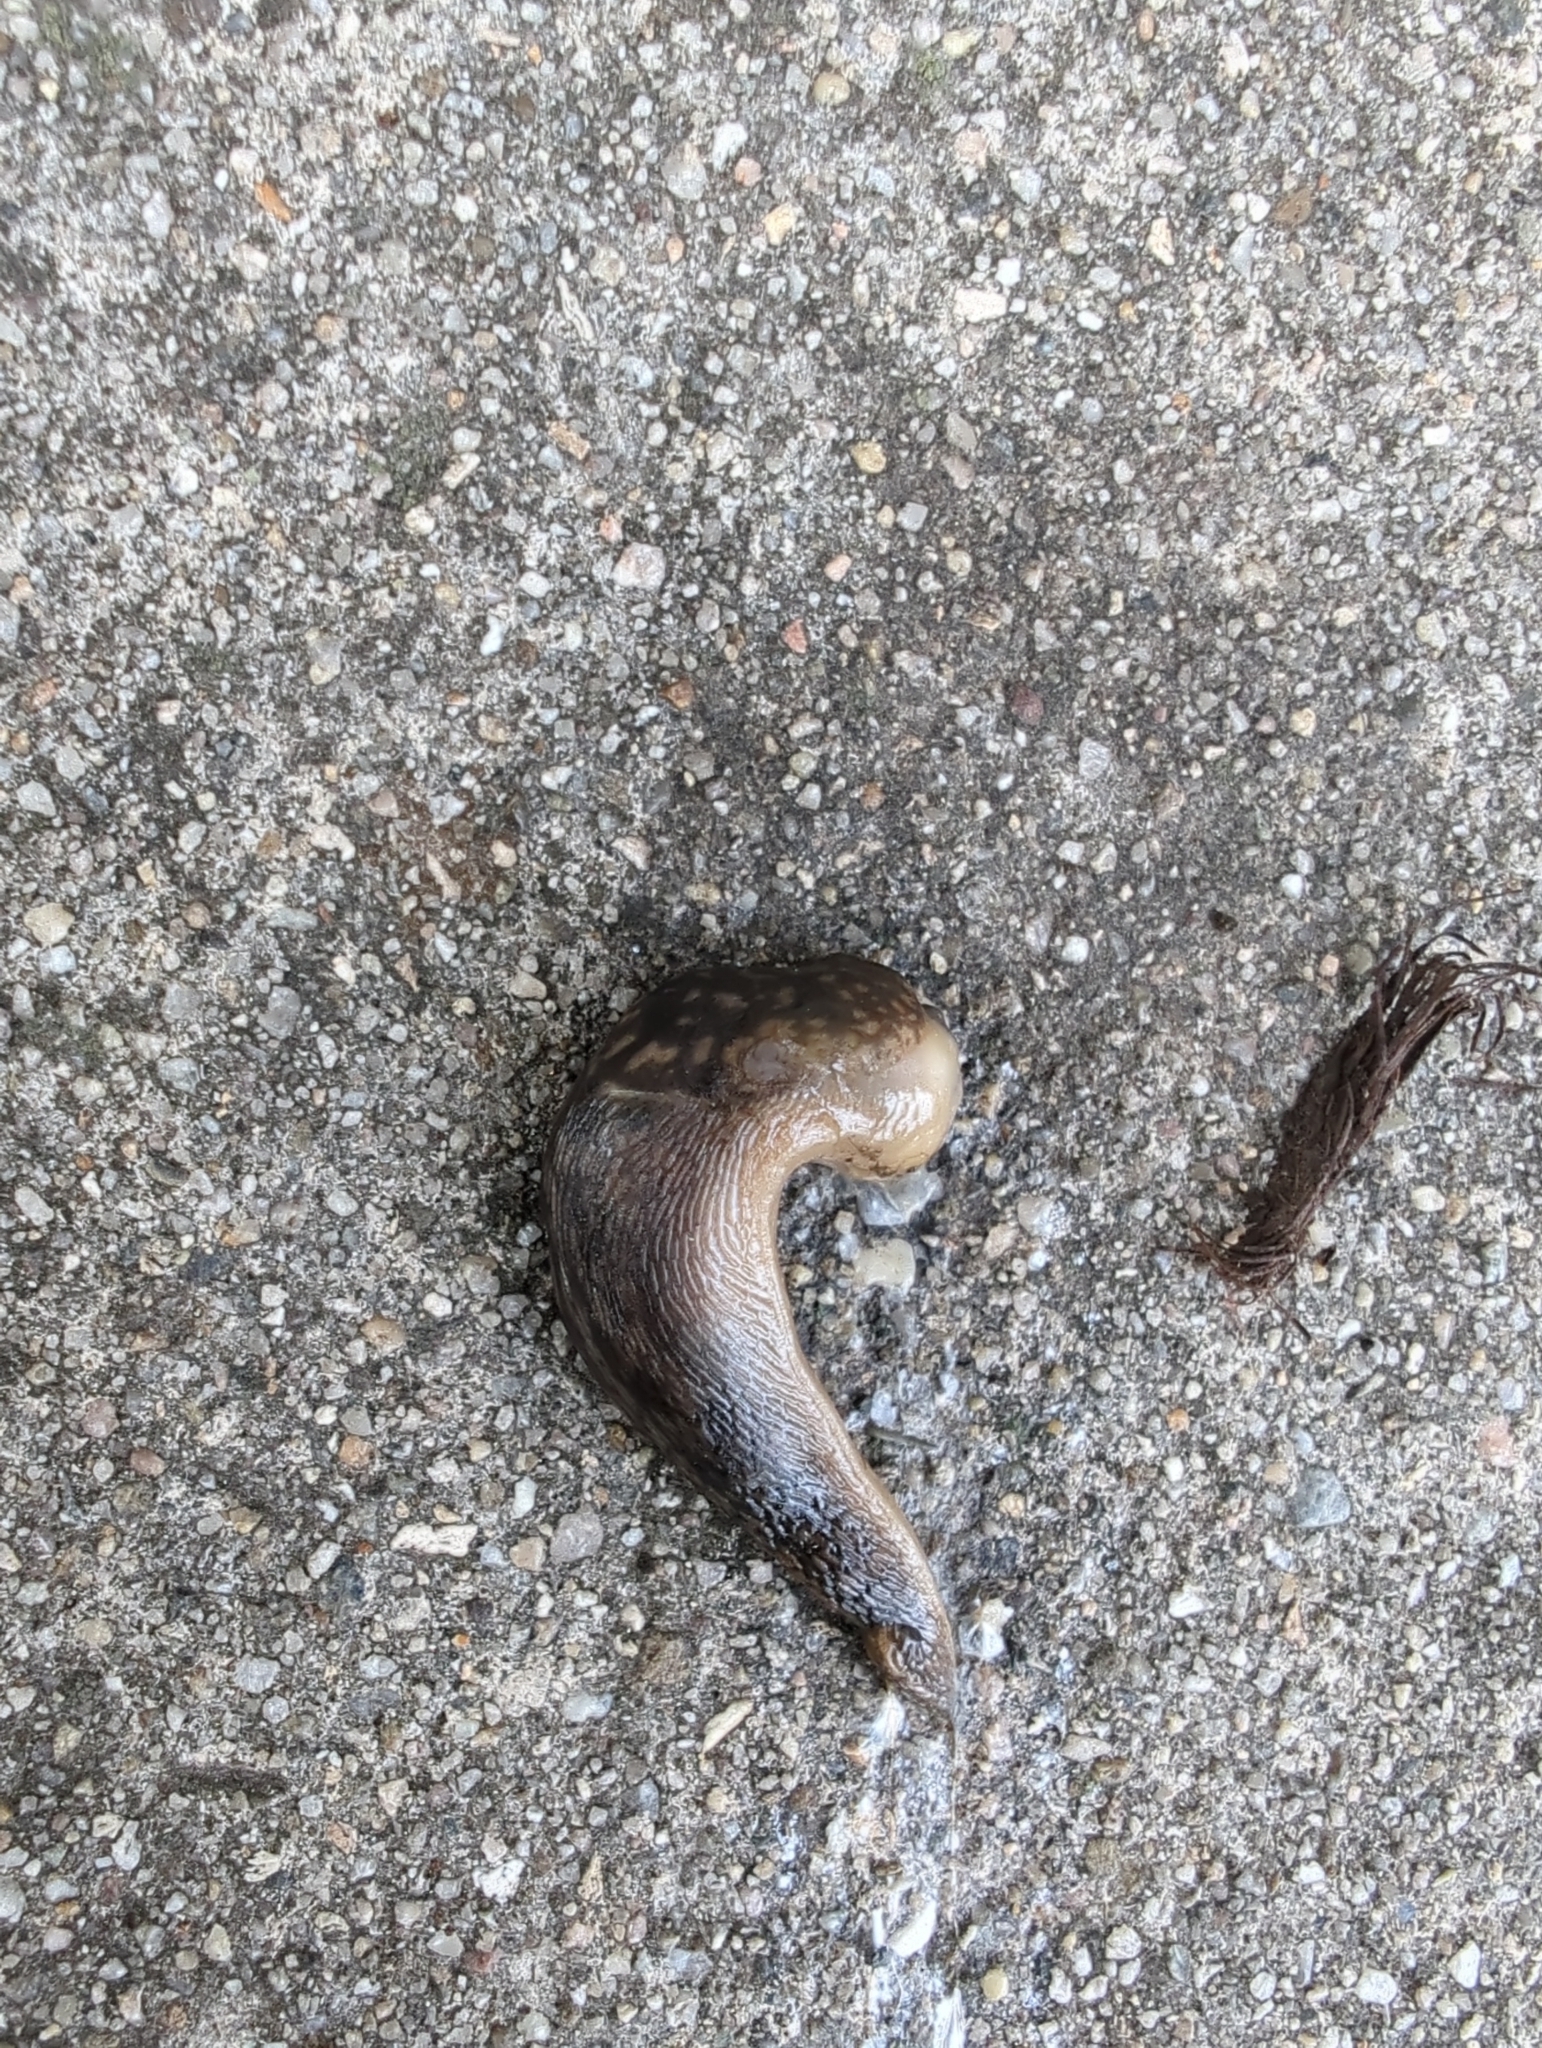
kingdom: Animalia
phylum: Mollusca
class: Gastropoda
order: Stylommatophora
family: Limacidae
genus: Limacus
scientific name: Limacus flavus
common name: Yellow gardenslug
